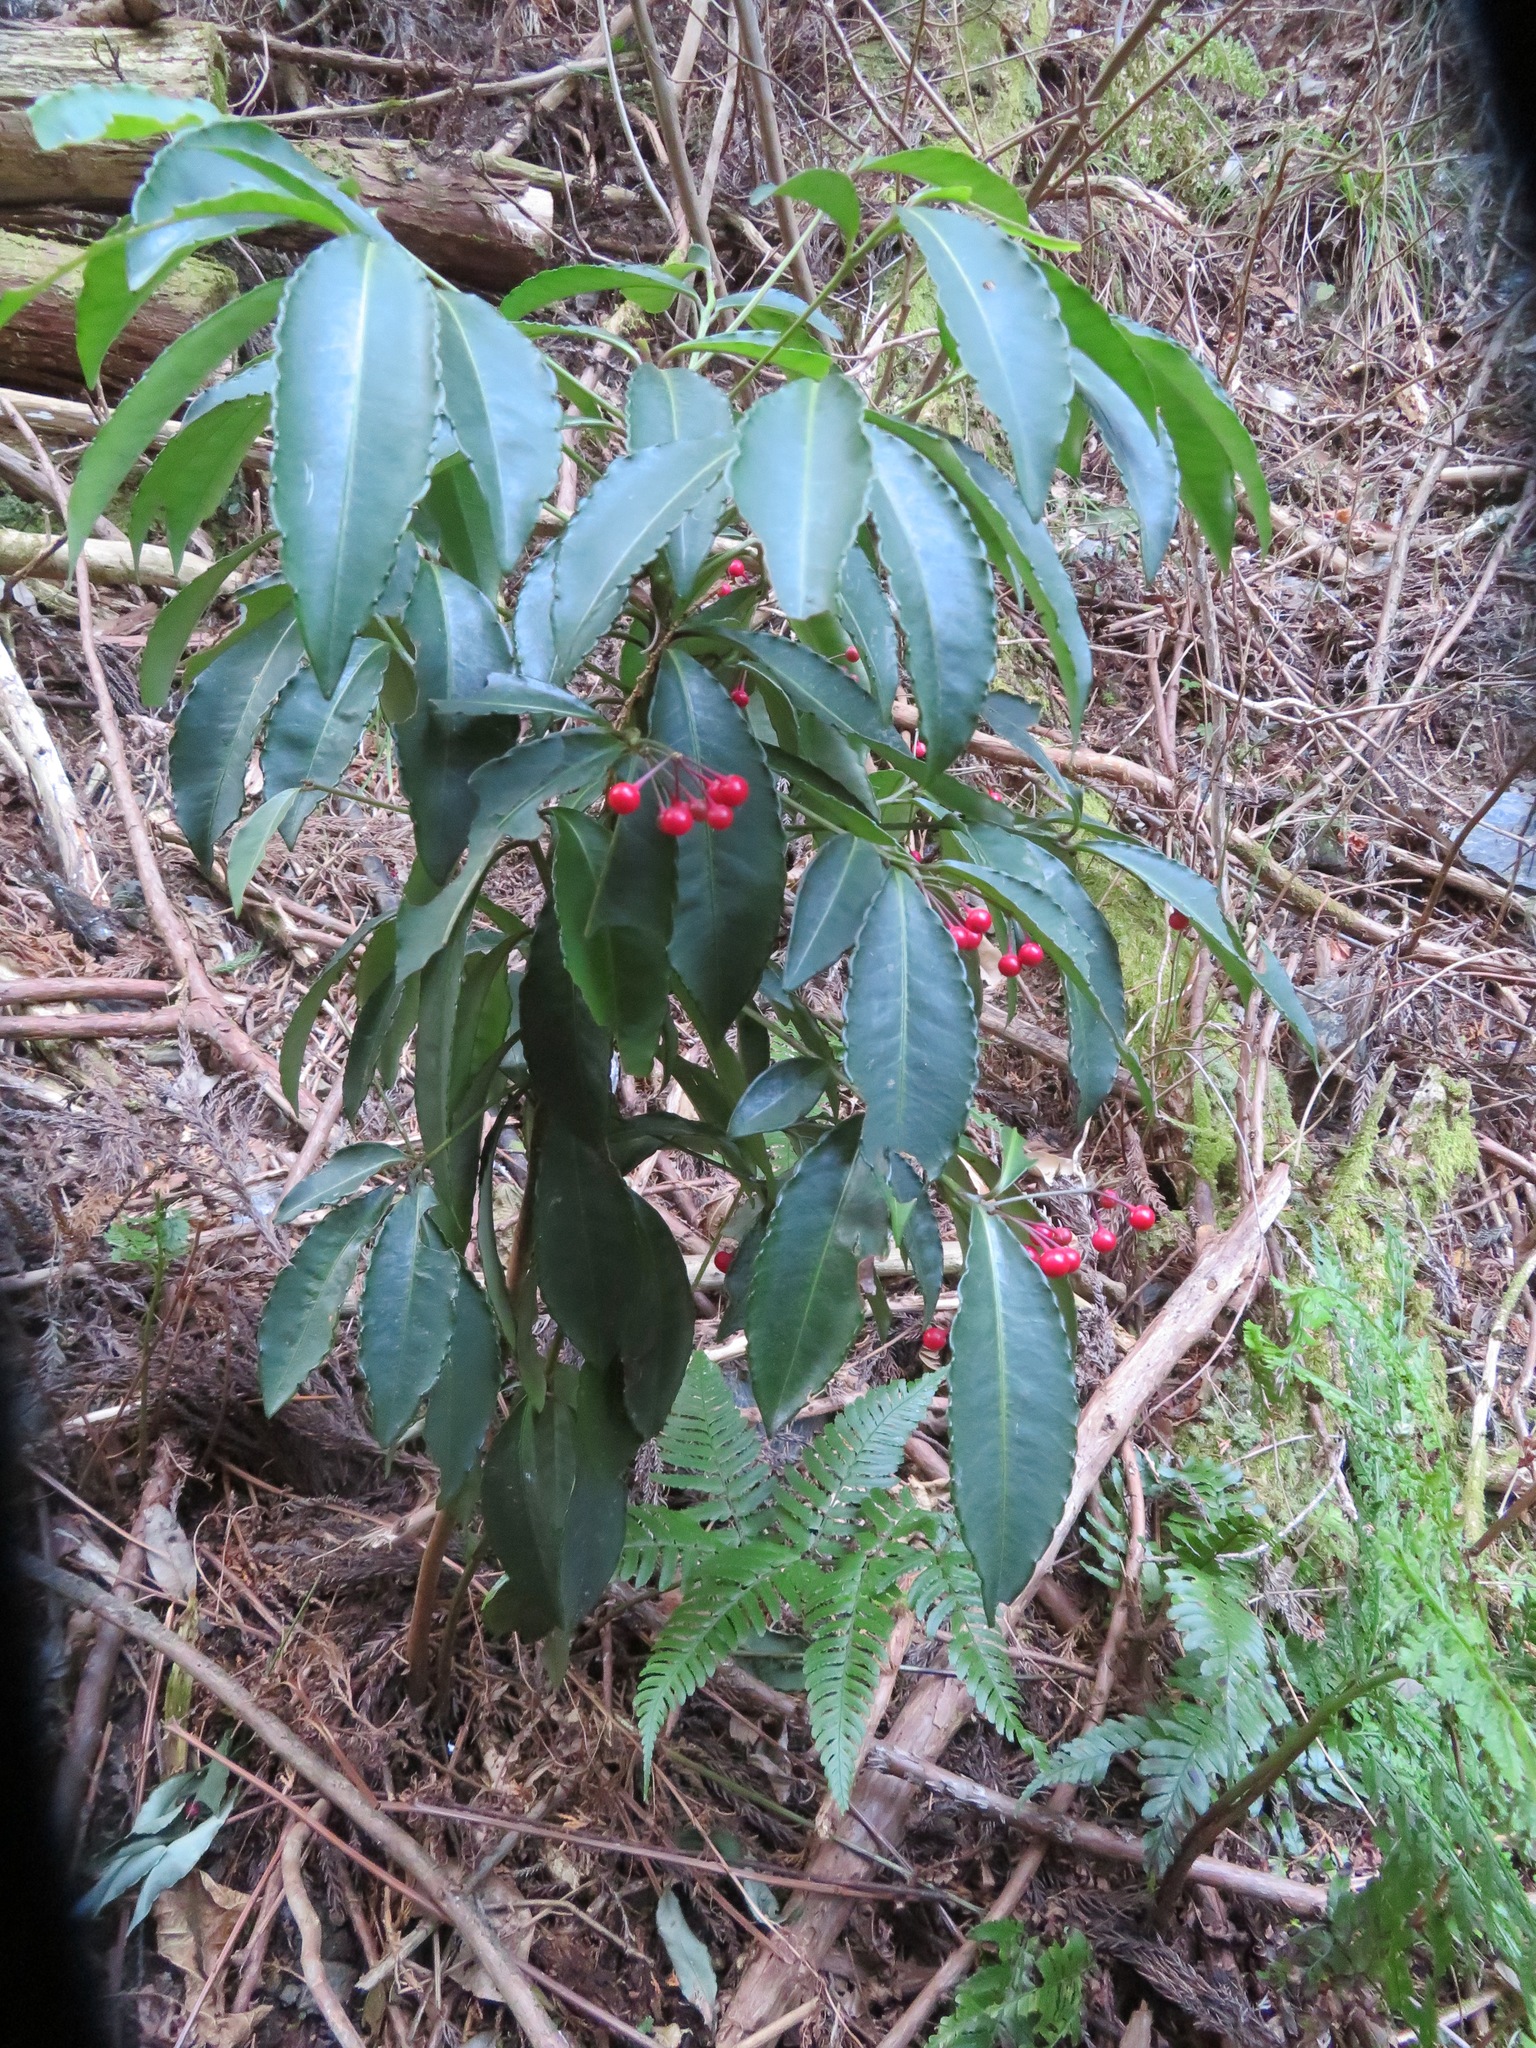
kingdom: Plantae
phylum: Tracheophyta
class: Magnoliopsida
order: Ericales
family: Primulaceae
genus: Ardisia
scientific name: Ardisia crenata
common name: Hen's eyes
